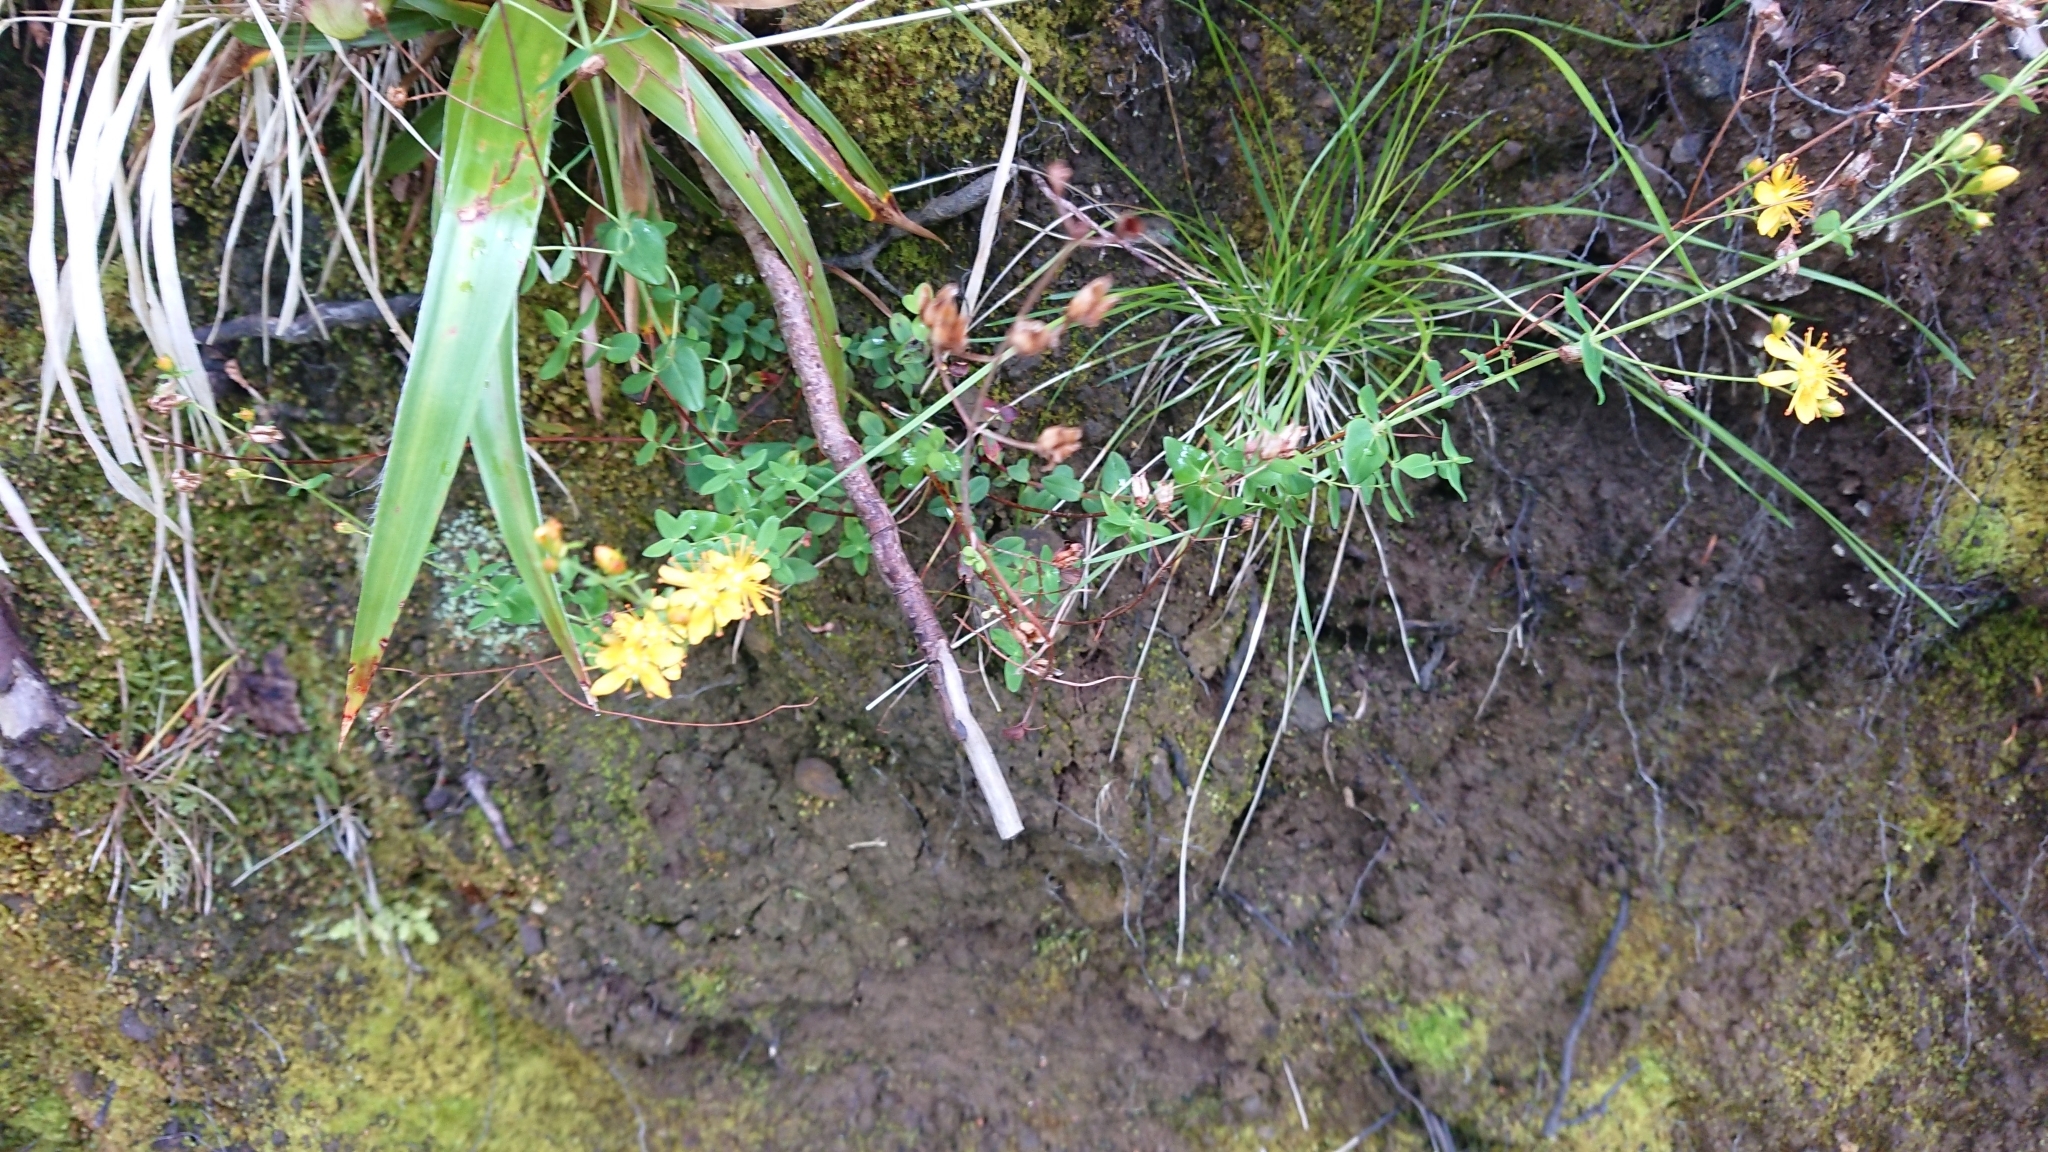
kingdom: Plantae
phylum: Tracheophyta
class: Magnoliopsida
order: Malpighiales
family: Hypericaceae
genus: Hypericum
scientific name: Hypericum pulchrum
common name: Slender st. john's-wort
